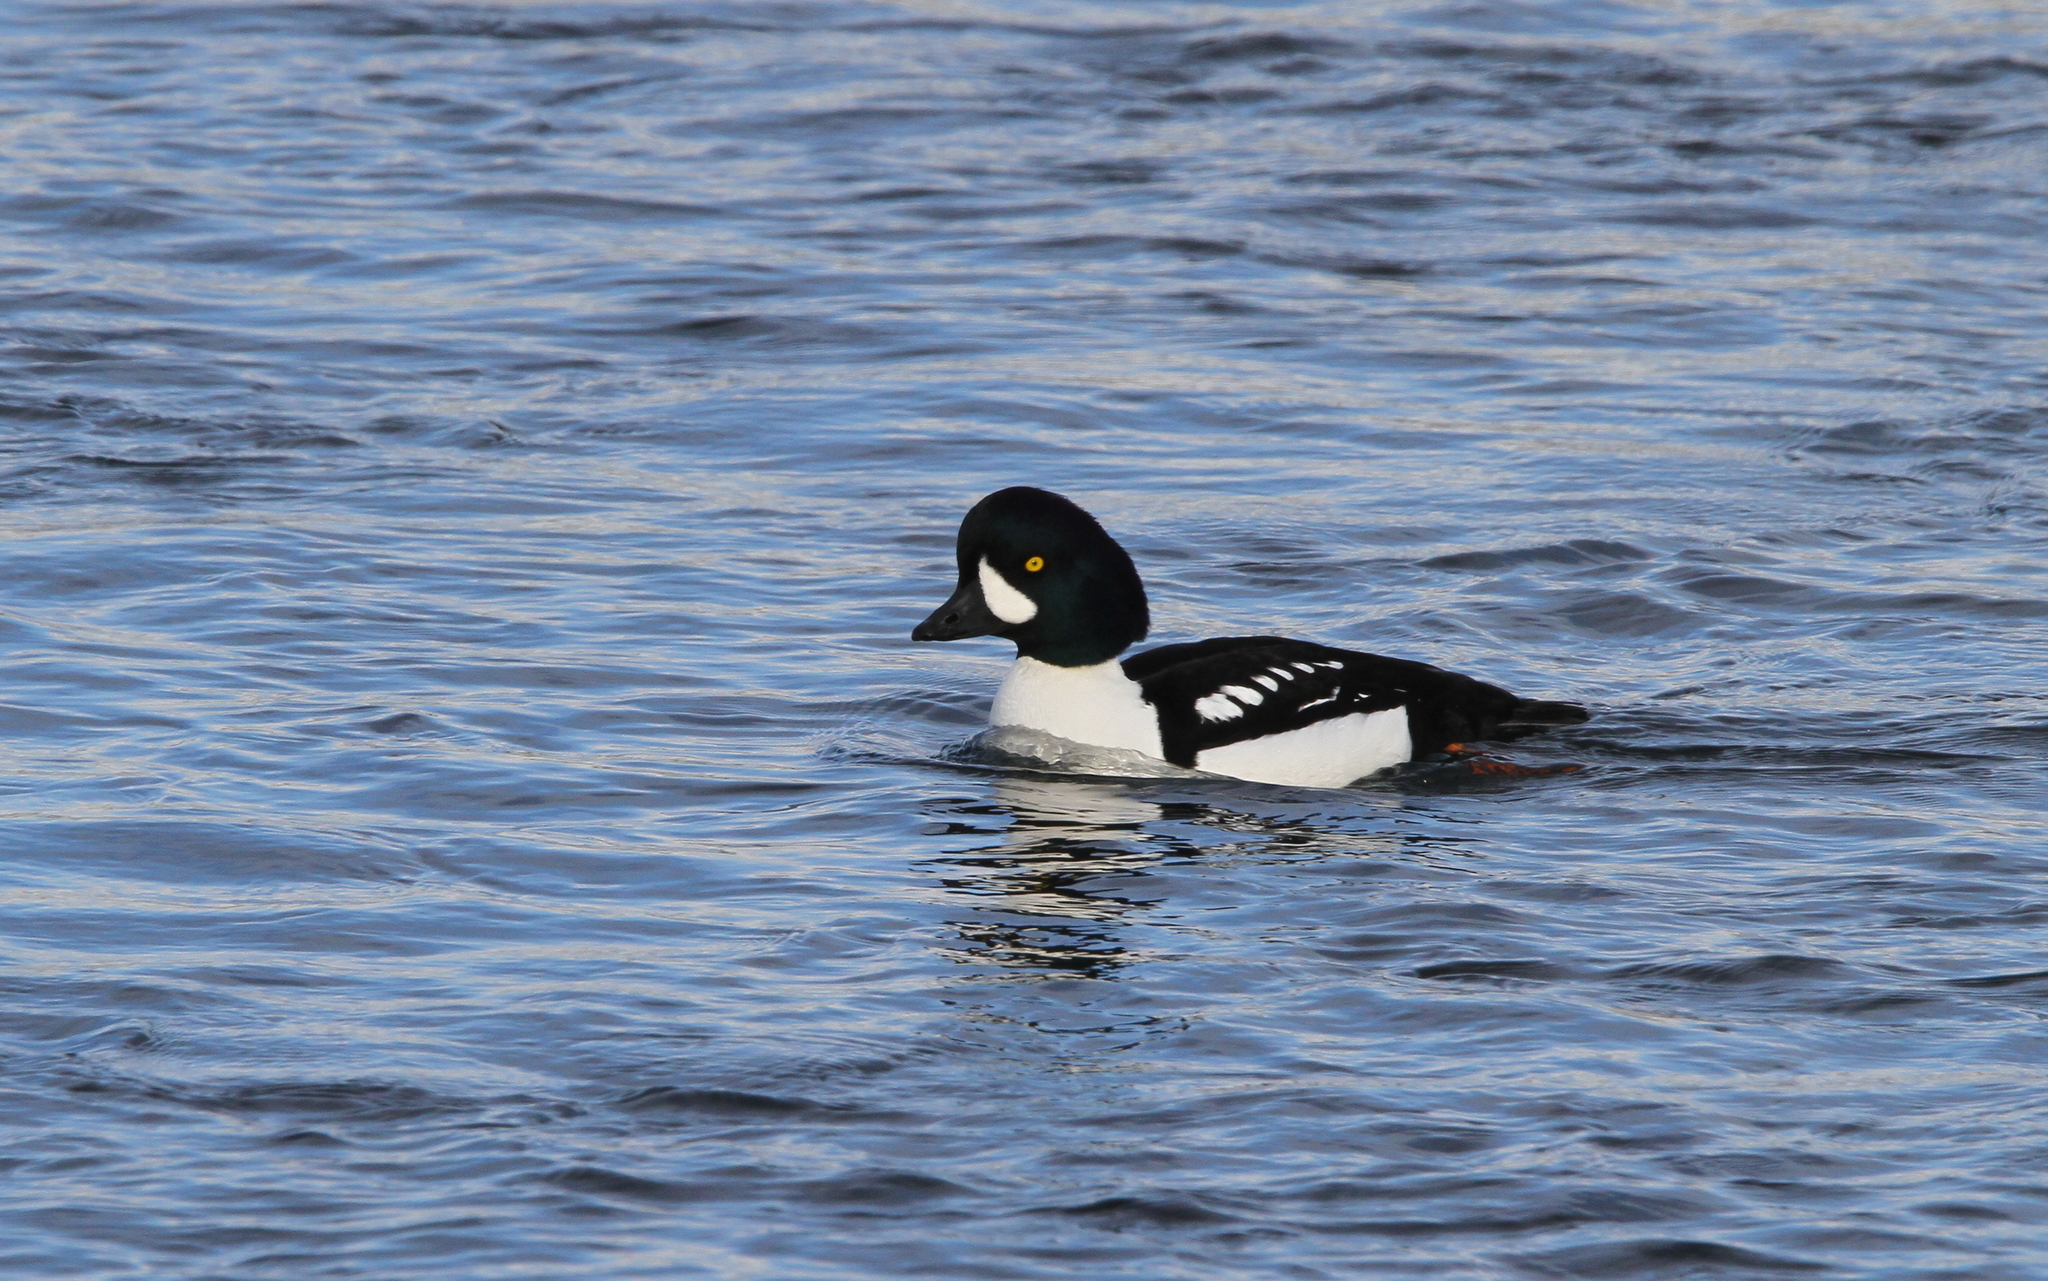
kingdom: Animalia
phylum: Chordata
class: Aves
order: Anseriformes
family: Anatidae
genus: Bucephala
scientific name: Bucephala islandica
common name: Barrow's goldeneye
